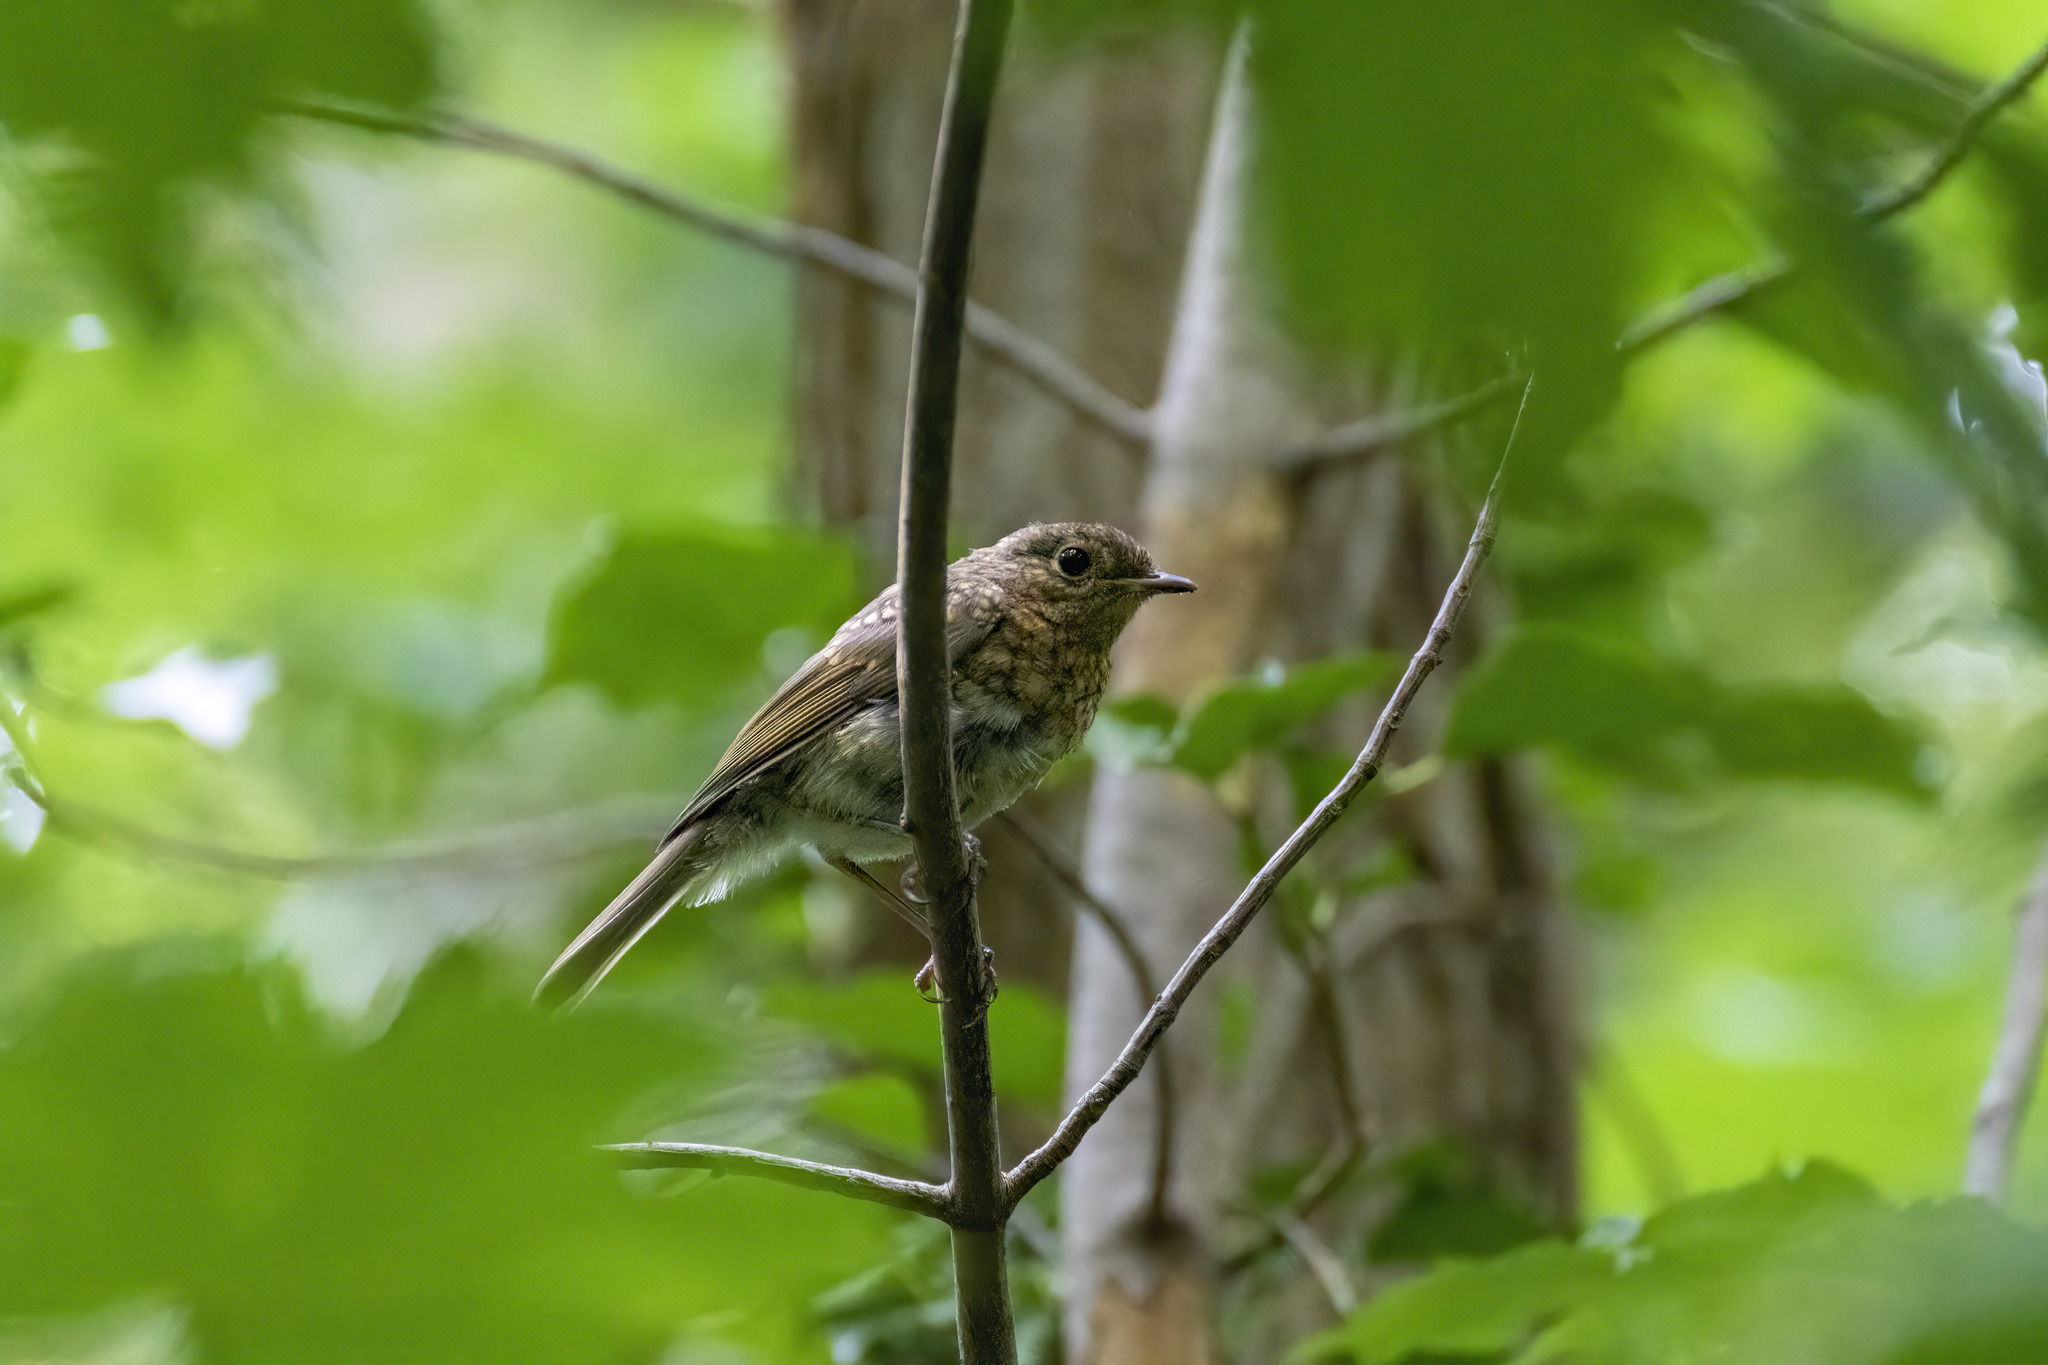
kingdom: Animalia
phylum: Chordata
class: Aves
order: Passeriformes
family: Muscicapidae
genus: Erithacus
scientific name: Erithacus rubecula
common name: European robin
